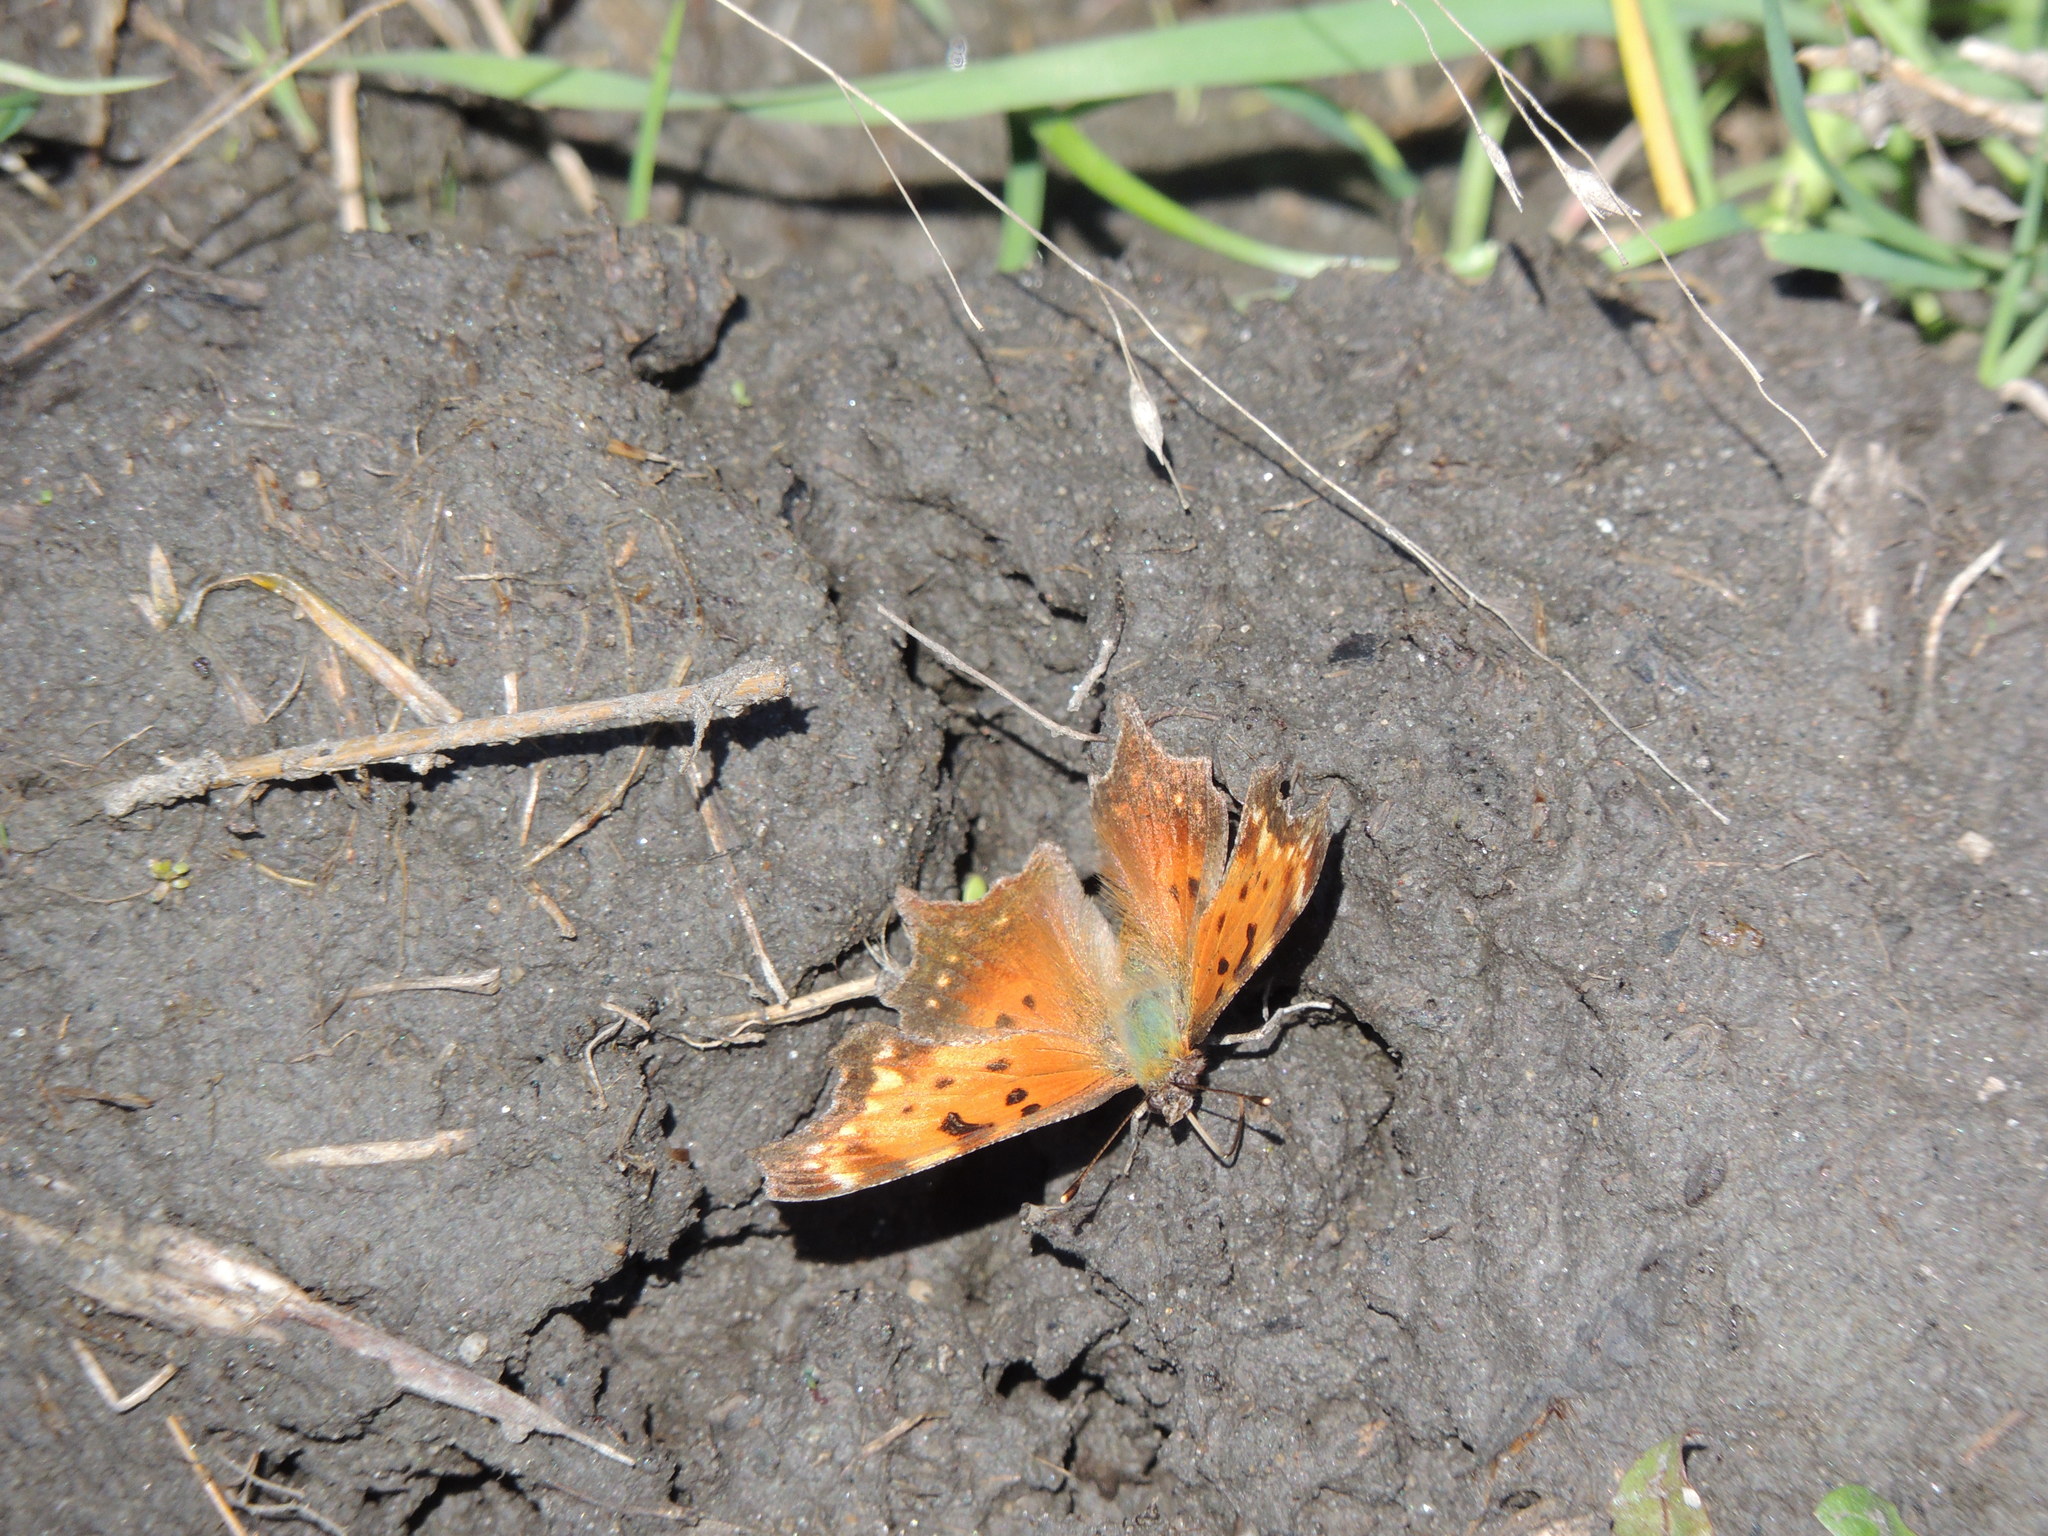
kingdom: Animalia
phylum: Arthropoda
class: Insecta
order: Lepidoptera
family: Nymphalidae
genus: Polygonia
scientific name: Polygonia progne
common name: Gray comma
